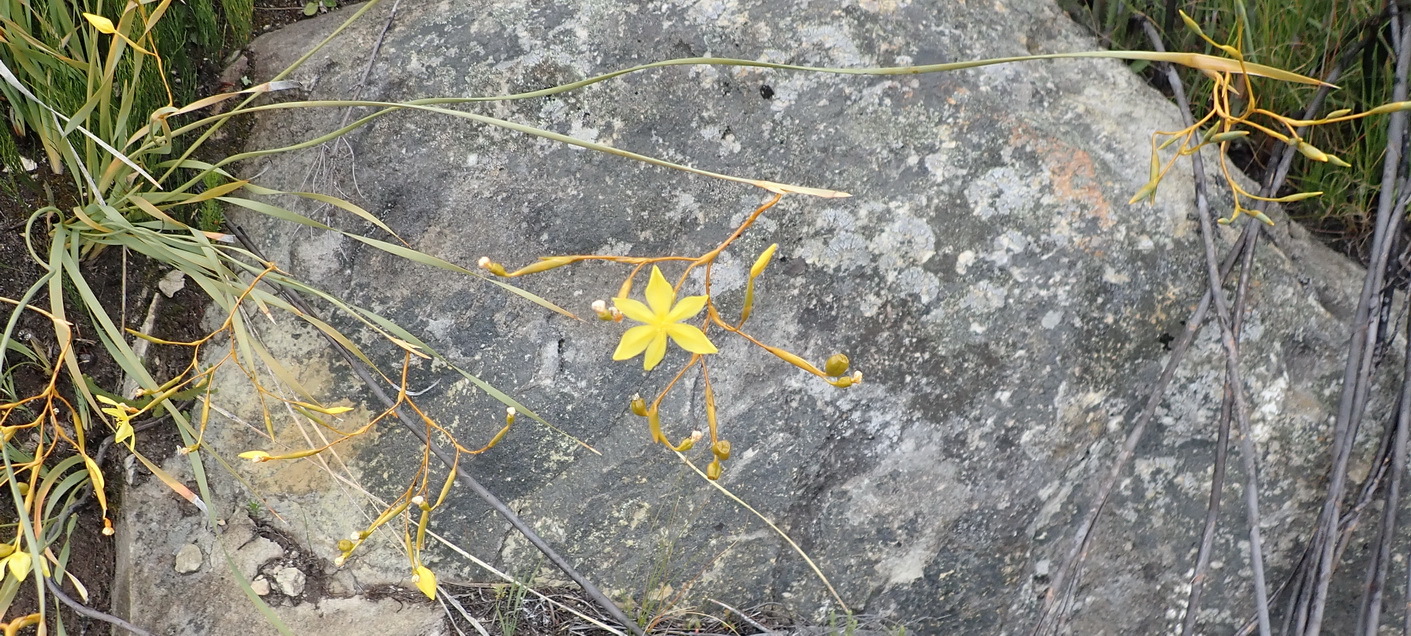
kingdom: Plantae
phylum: Tracheophyta
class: Liliopsida
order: Asparagales
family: Iridaceae
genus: Bobartia
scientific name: Bobartia paniculata
